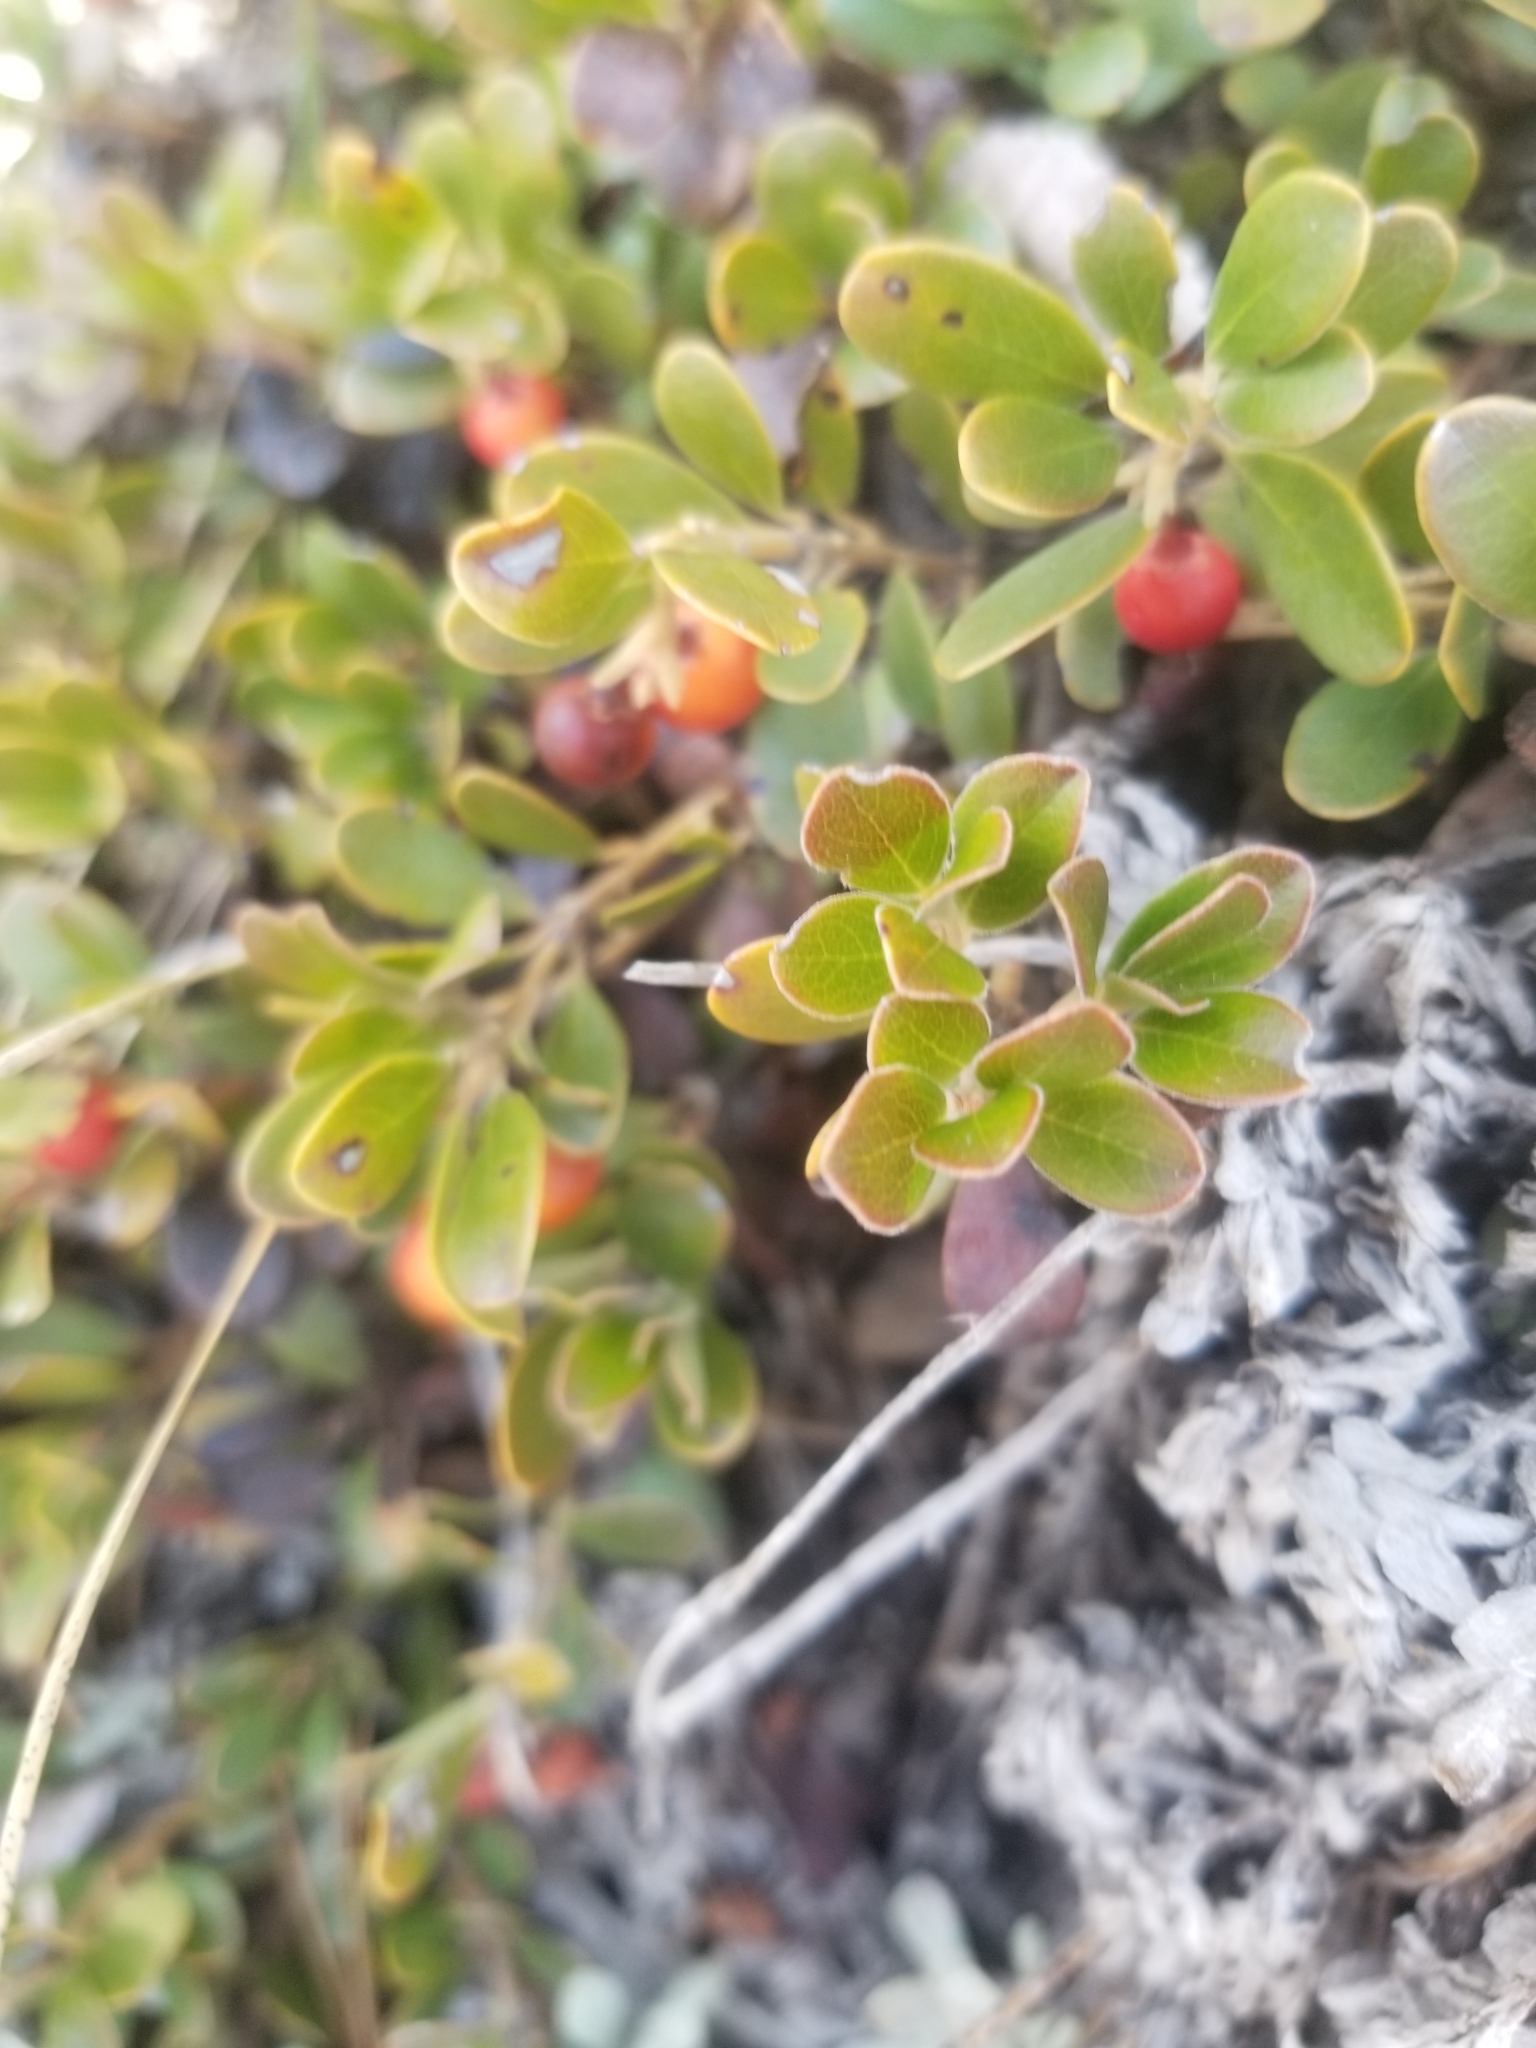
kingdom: Plantae
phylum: Tracheophyta
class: Magnoliopsida
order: Ericales
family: Ericaceae
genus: Arctostaphylos
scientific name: Arctostaphylos uva-ursi
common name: Bearberry
